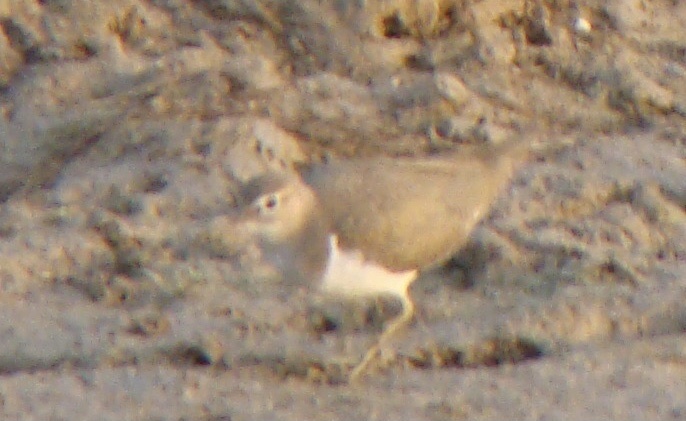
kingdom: Animalia
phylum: Chordata
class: Aves
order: Charadriiformes
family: Scolopacidae
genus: Actitis
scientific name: Actitis hypoleucos
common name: Common sandpiper
